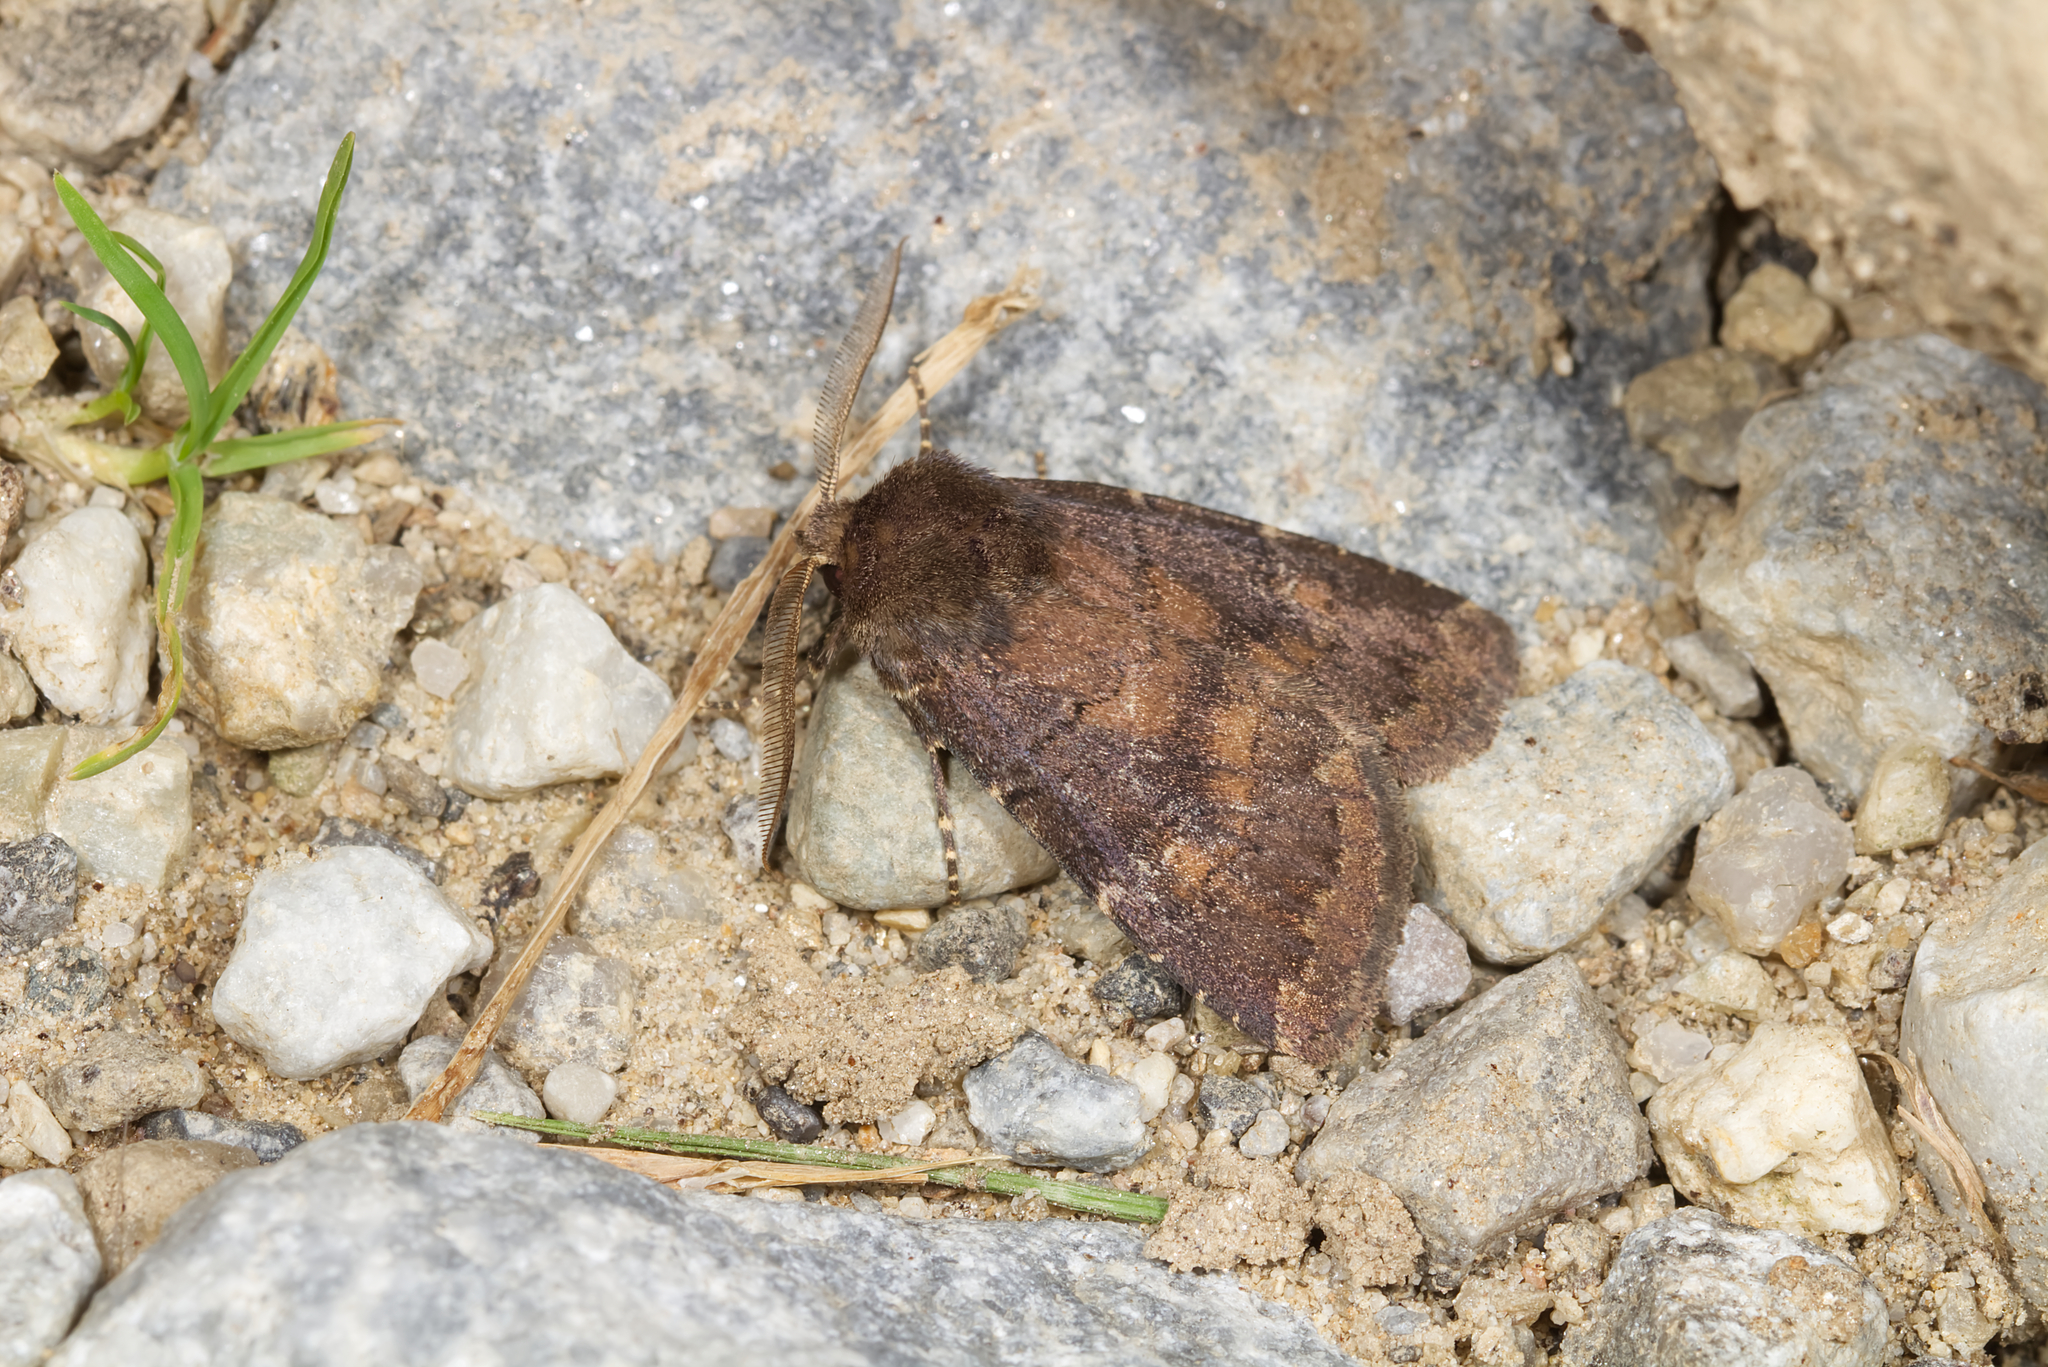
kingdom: Animalia
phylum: Arthropoda
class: Insecta
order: Lepidoptera
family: Noctuidae
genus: Charanyca
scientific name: Charanyca ferruginea
